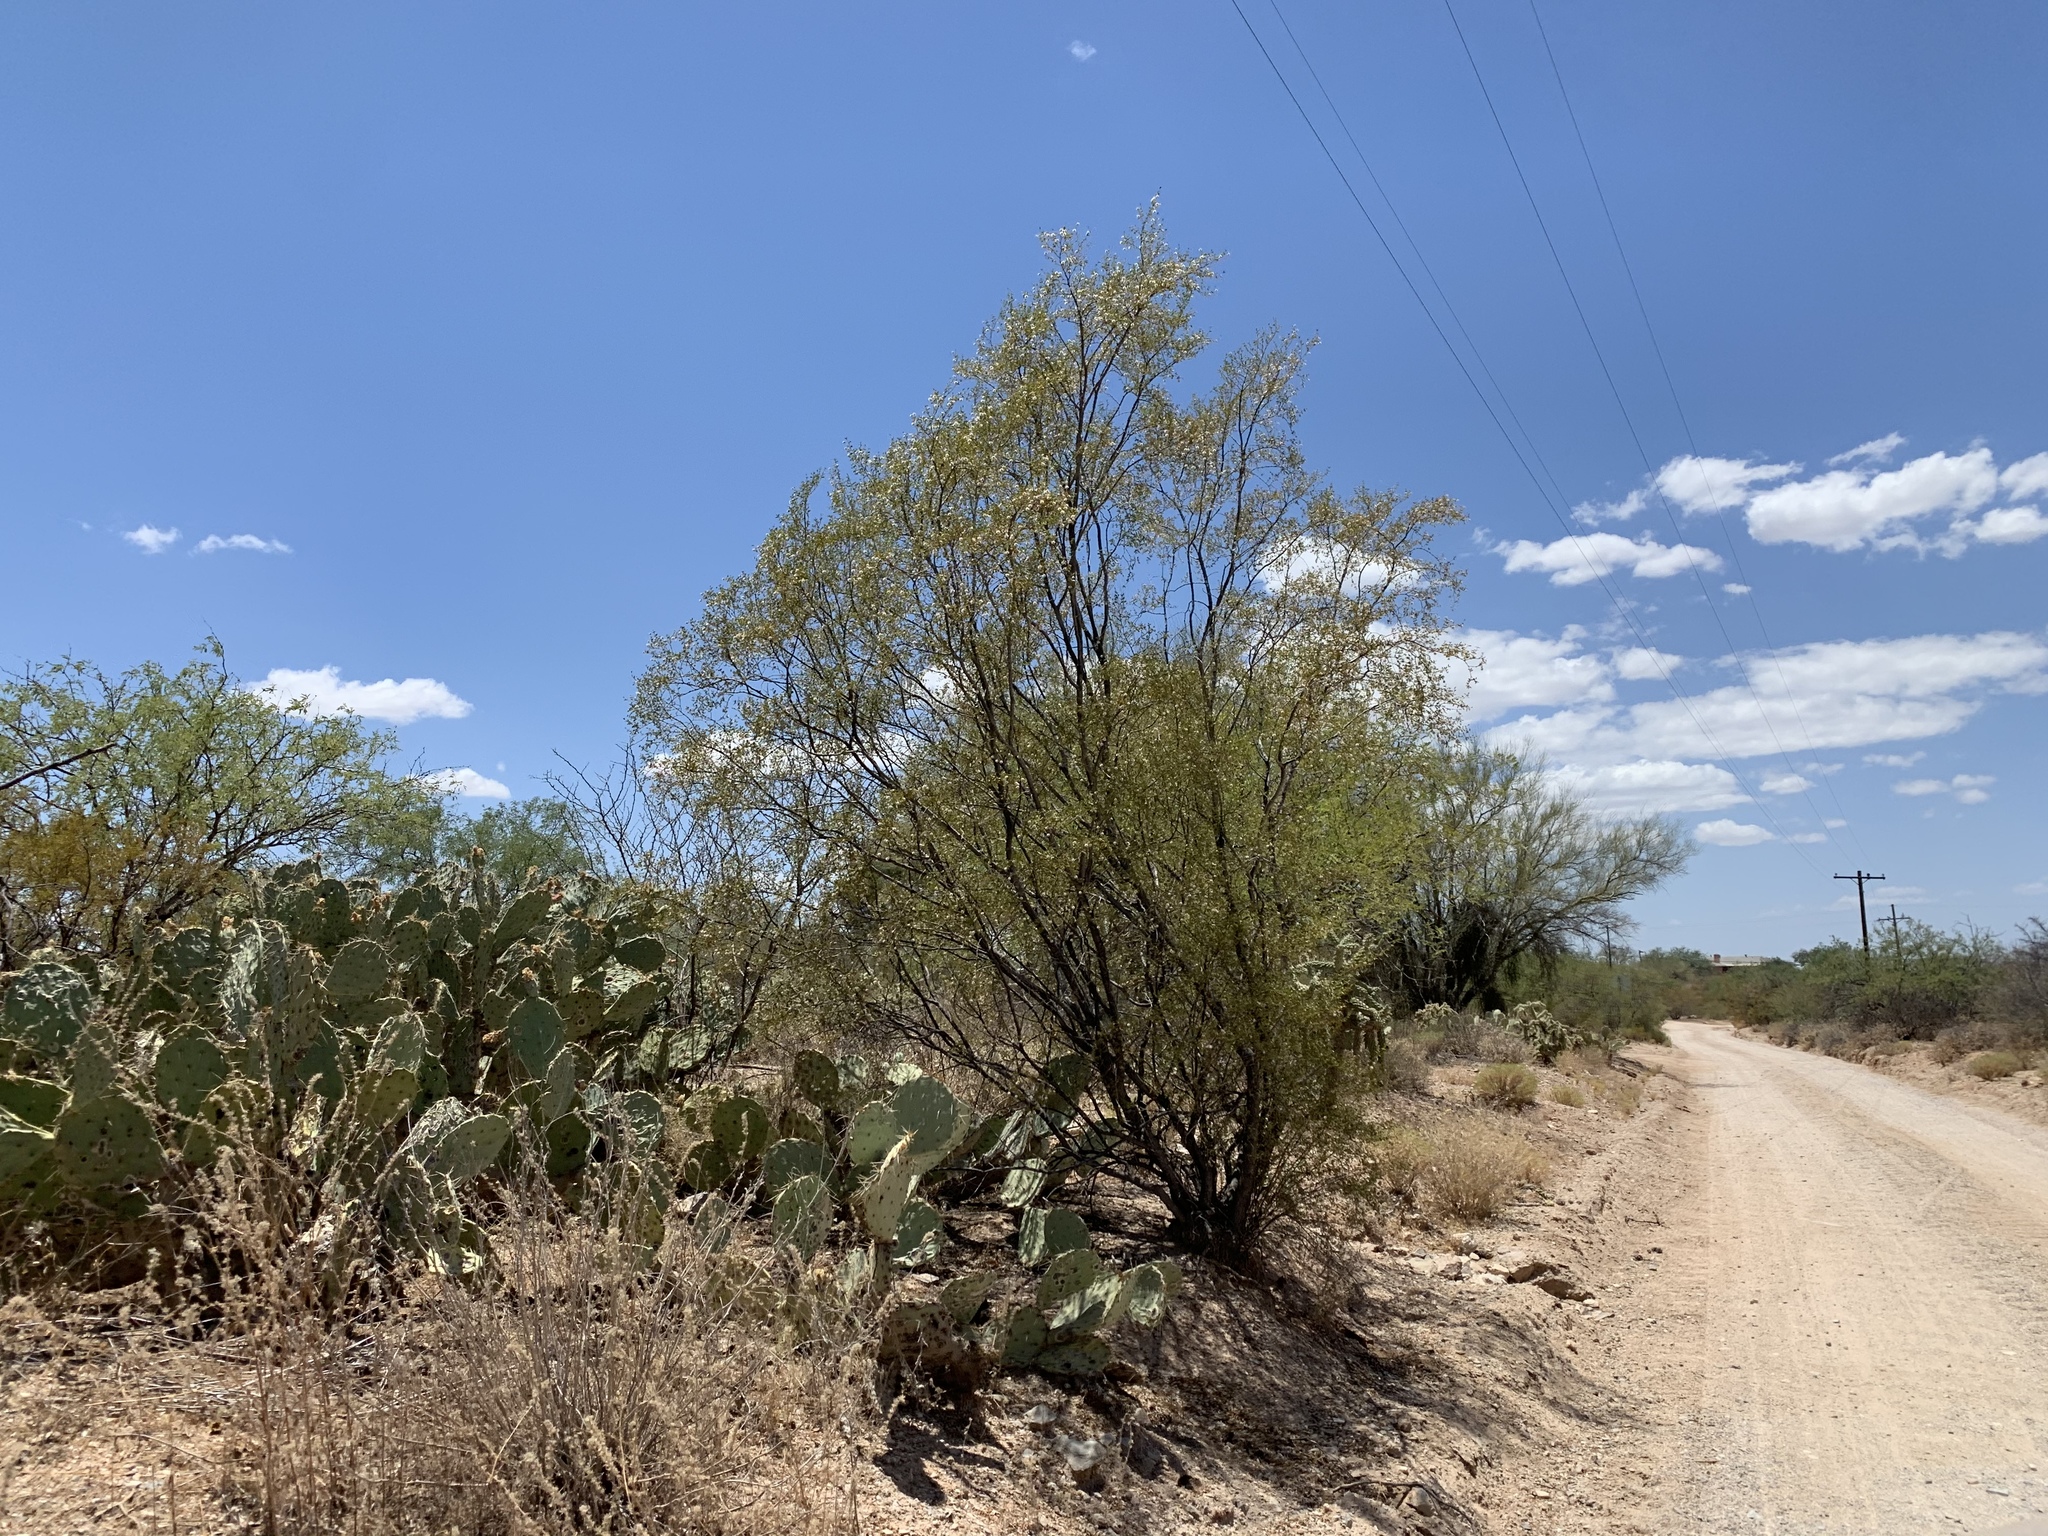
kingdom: Plantae
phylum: Tracheophyta
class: Magnoliopsida
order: Zygophyllales
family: Zygophyllaceae
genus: Larrea
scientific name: Larrea tridentata
